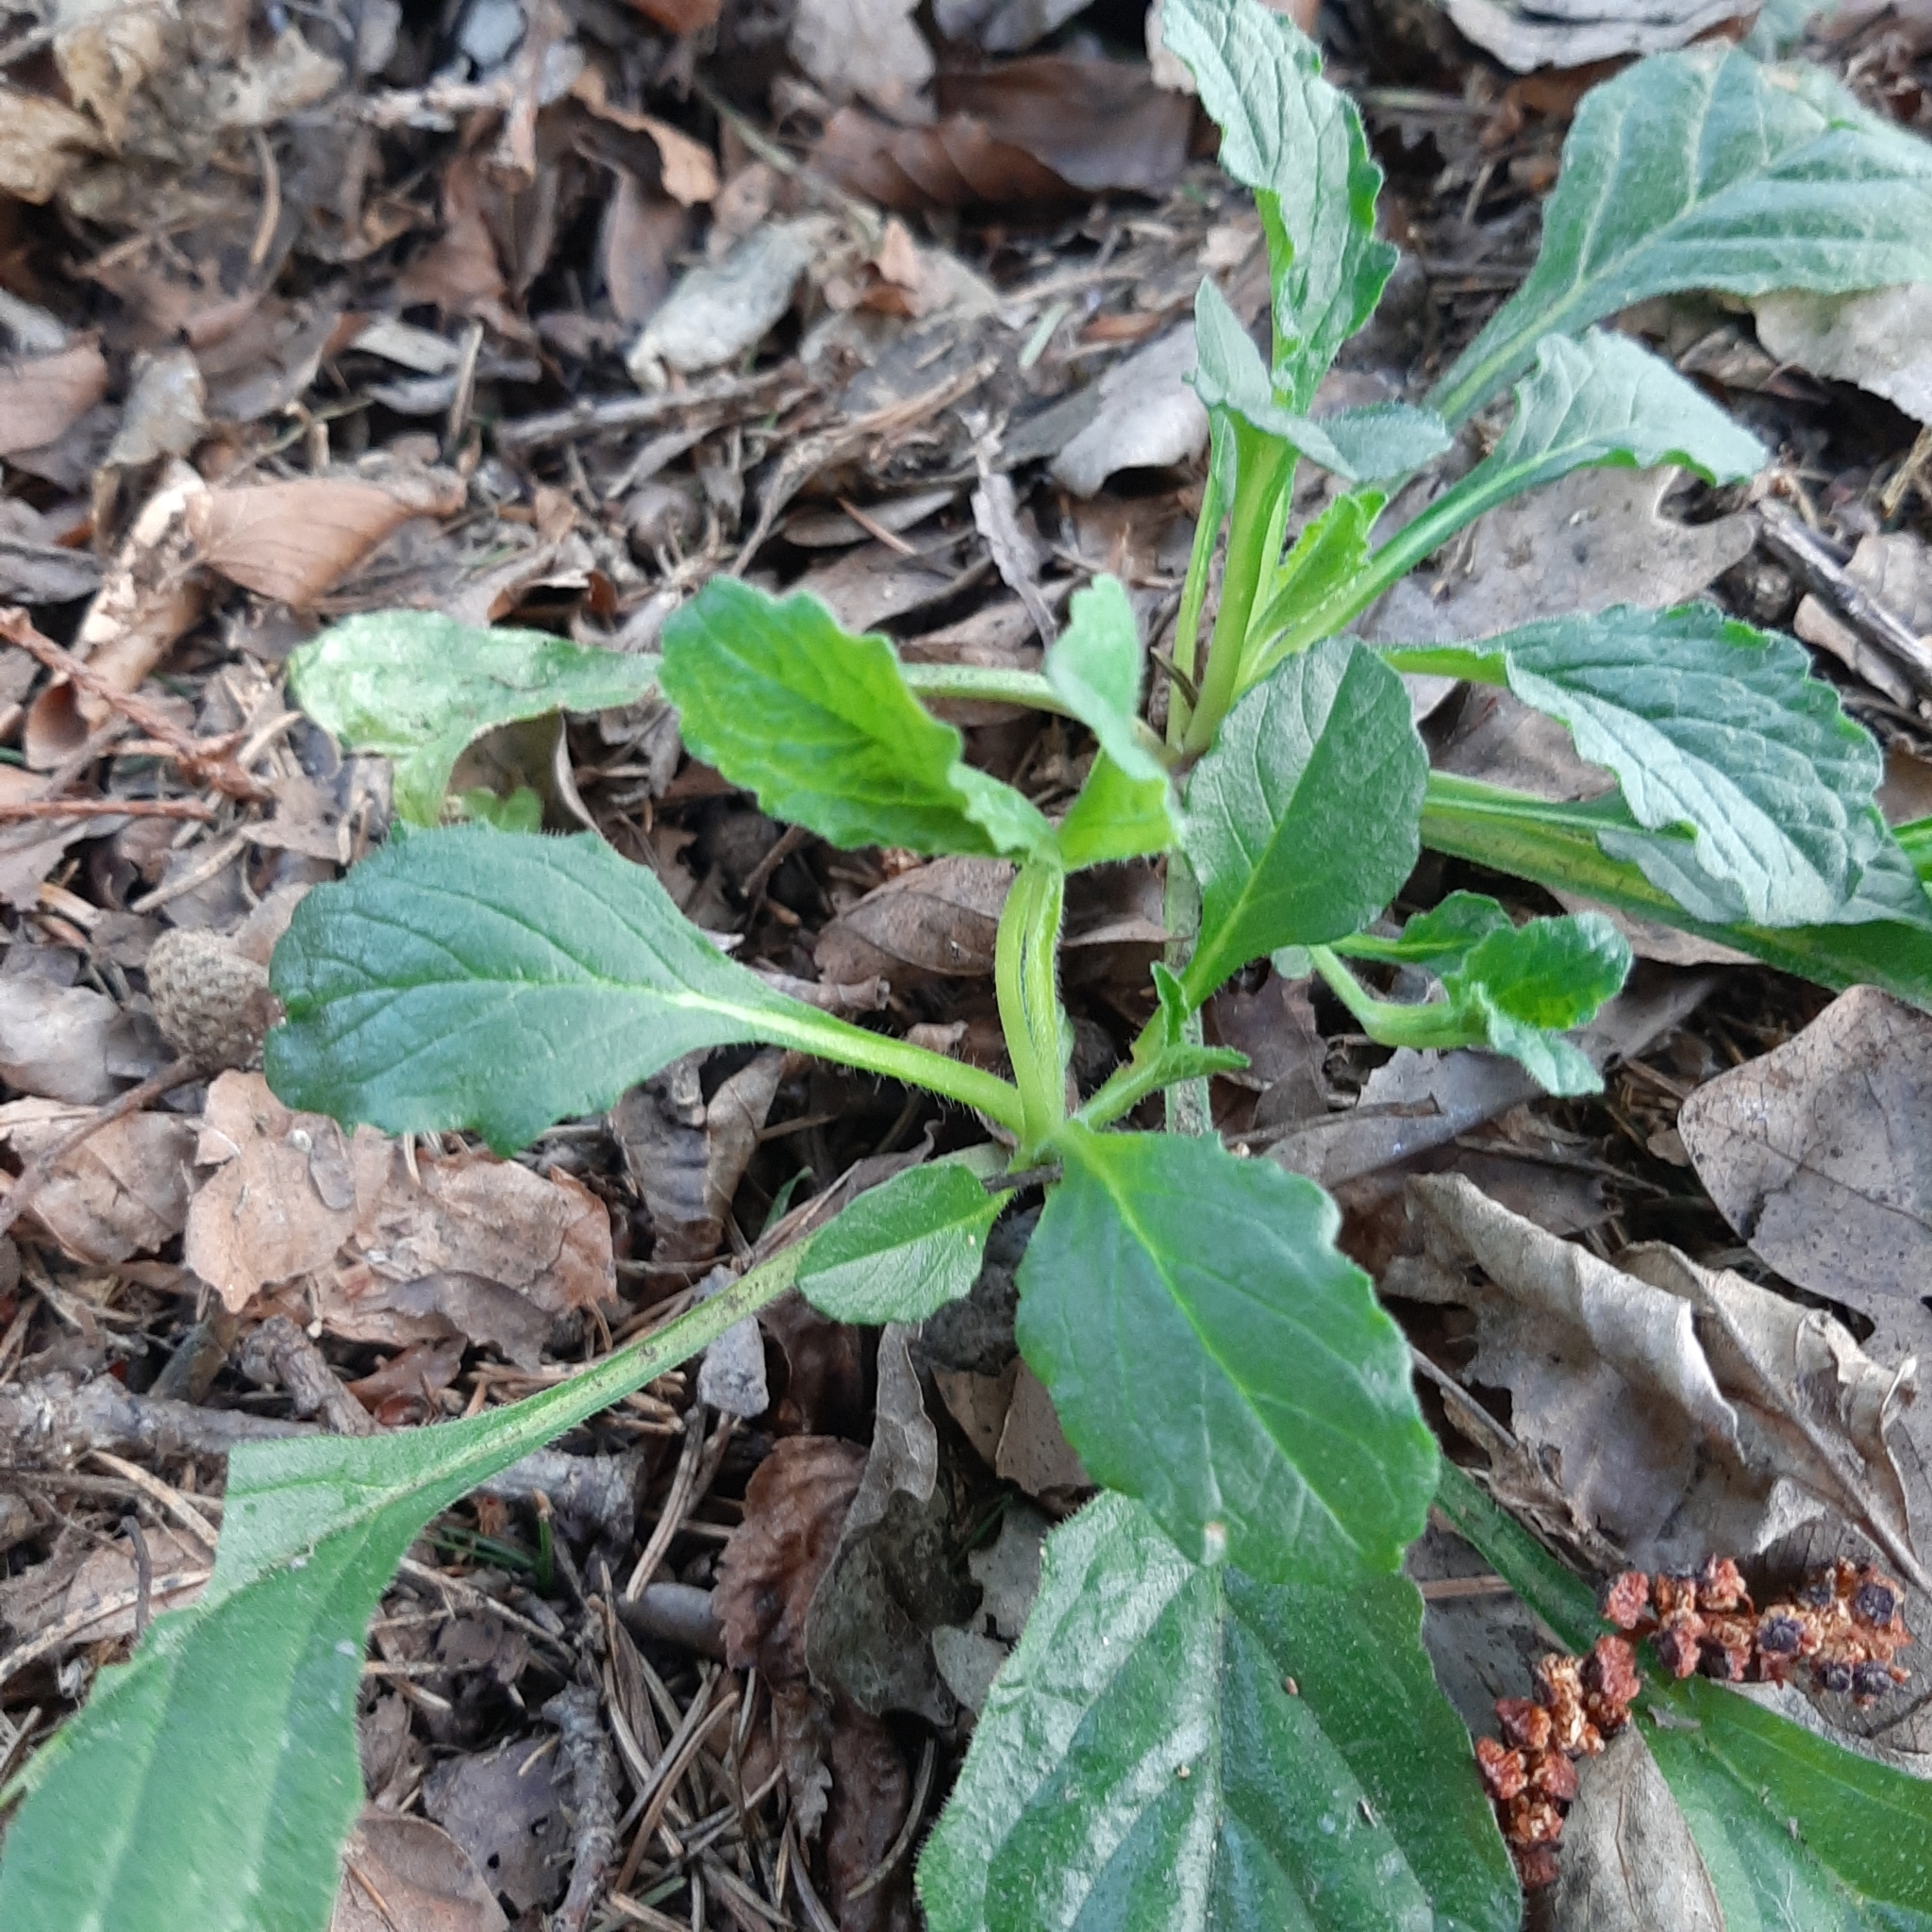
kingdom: Plantae
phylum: Tracheophyta
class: Magnoliopsida
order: Lamiales
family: Lamiaceae
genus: Ajuga
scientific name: Ajuga reptans
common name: Bugle
